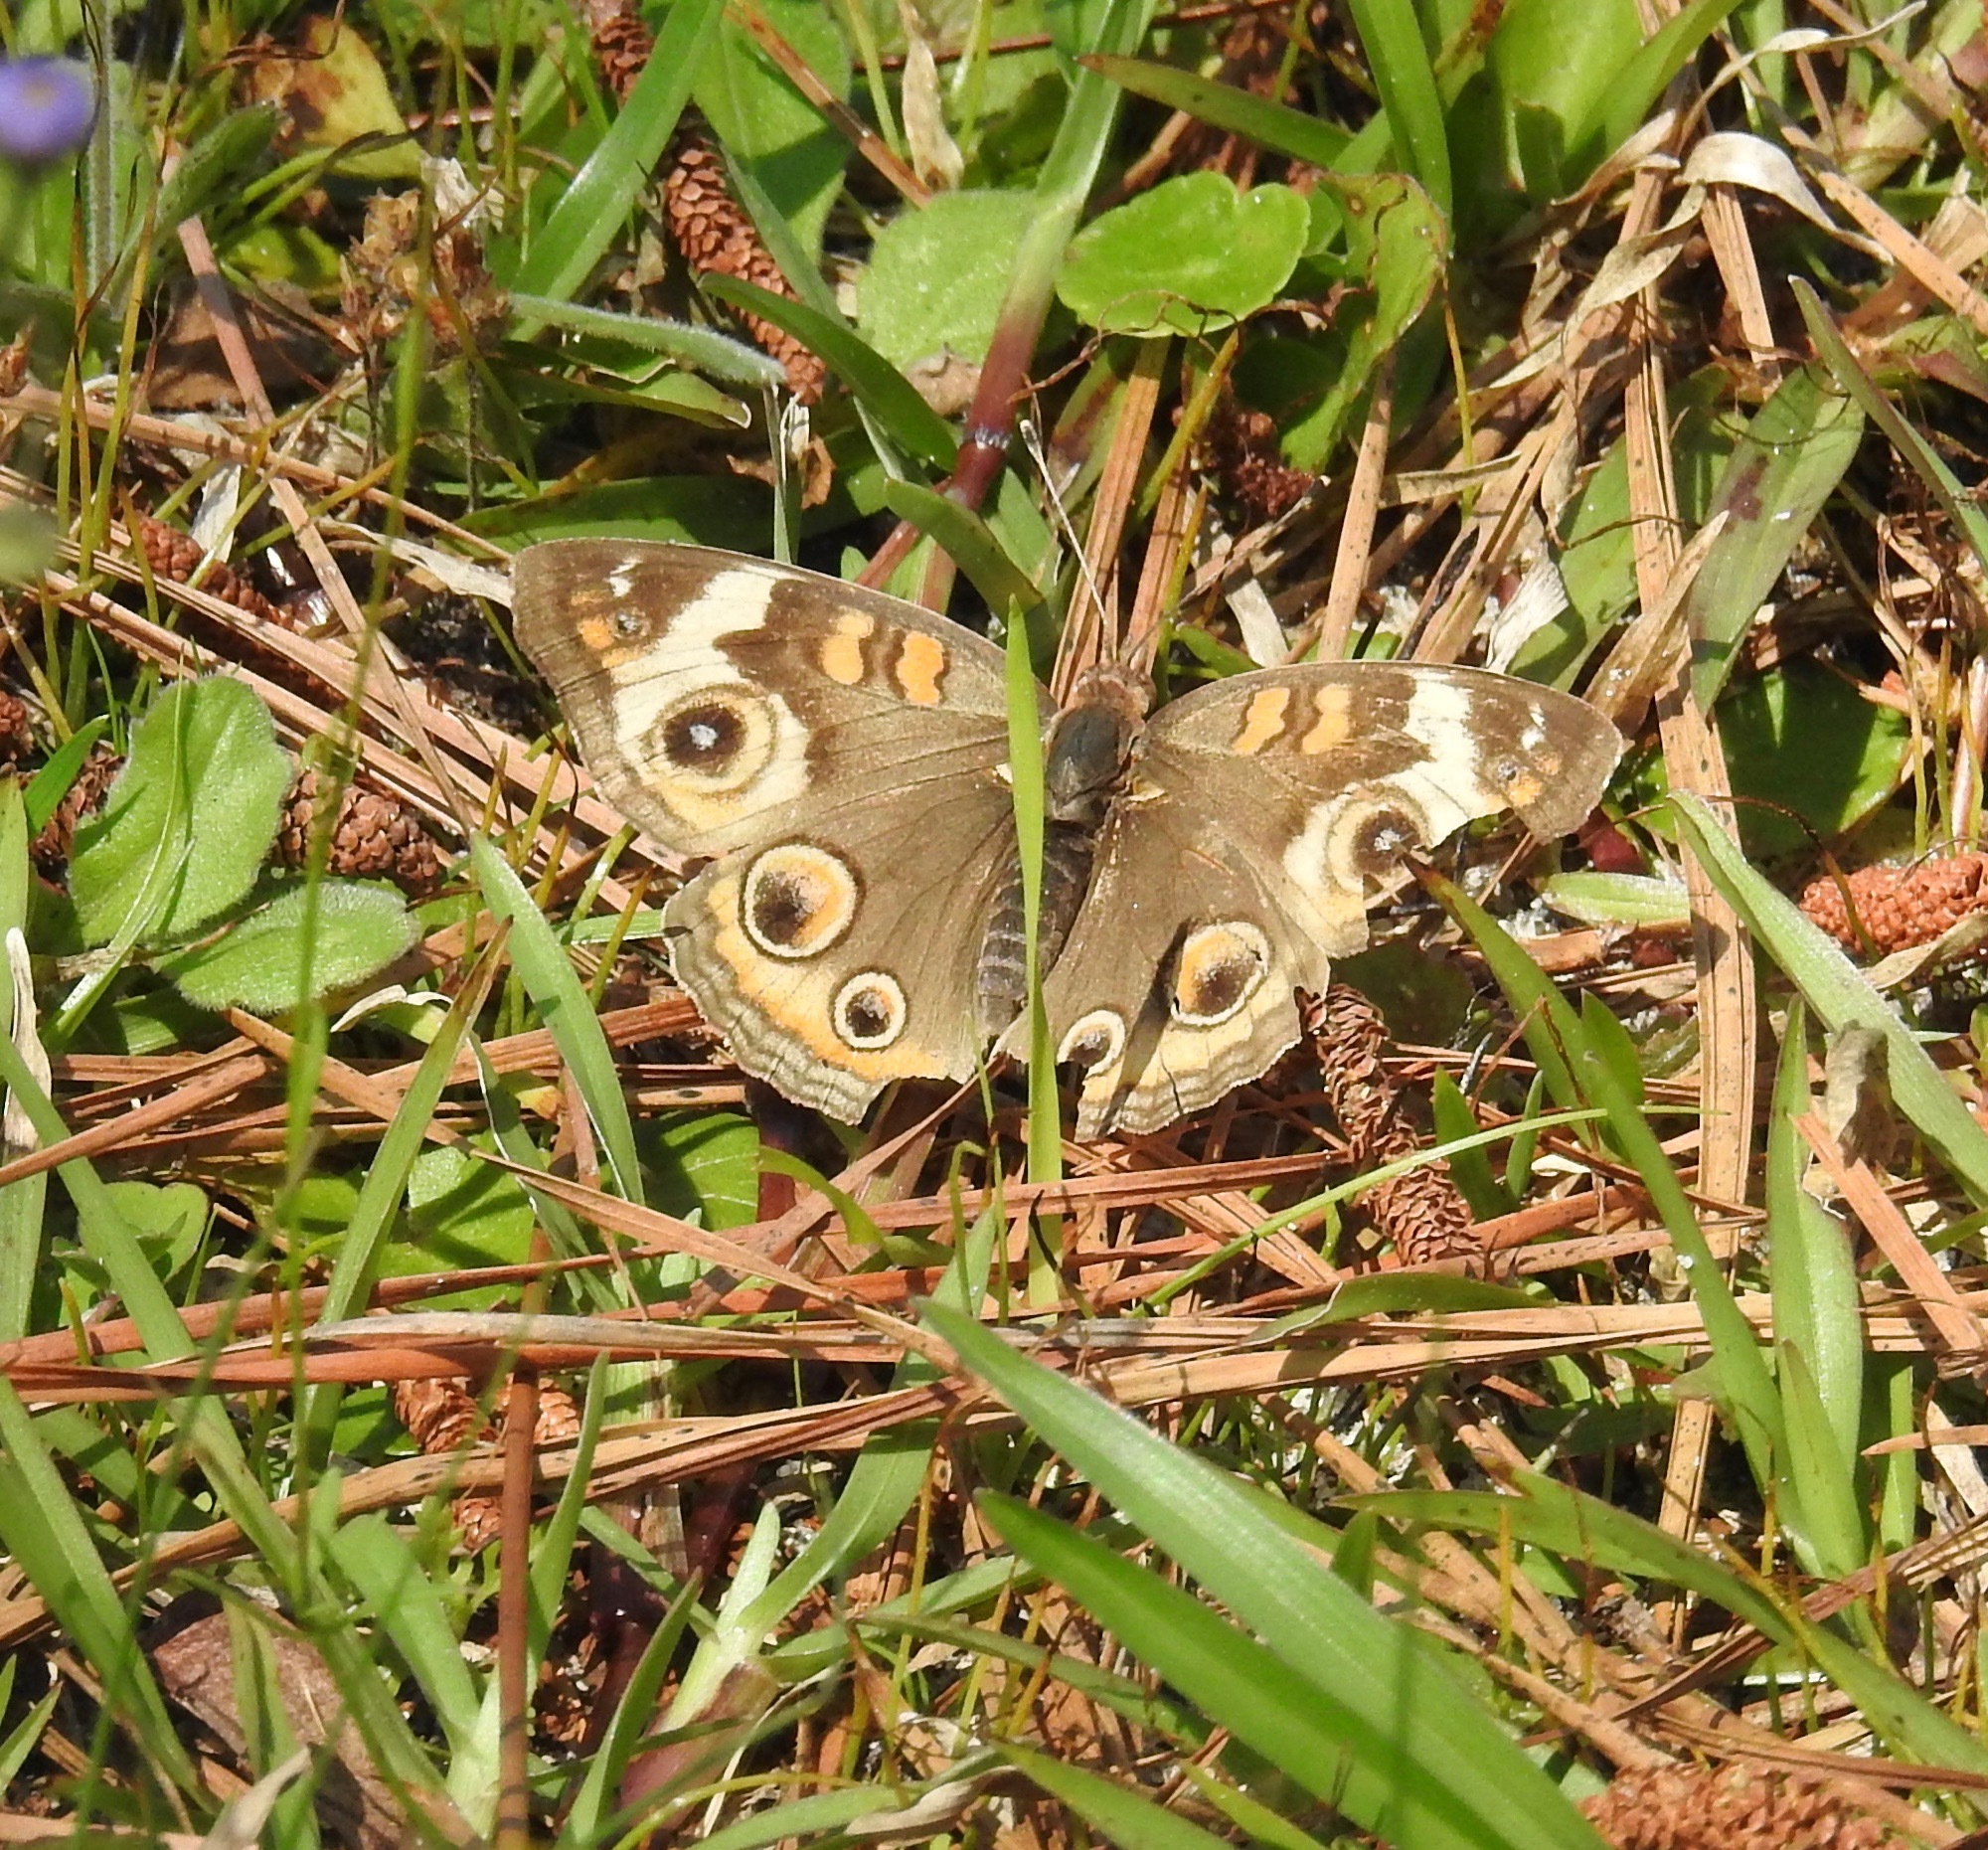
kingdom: Animalia
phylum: Arthropoda
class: Insecta
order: Lepidoptera
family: Nymphalidae
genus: Junonia
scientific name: Junonia coenia
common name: Common buckeye
